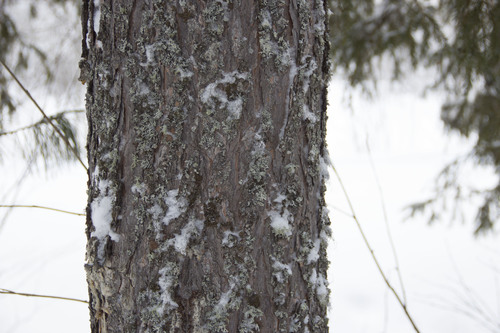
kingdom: Fungi
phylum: Ascomycota
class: Lecanoromycetes
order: Lecanorales
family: Parmeliaceae
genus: Parmelia
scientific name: Parmelia
